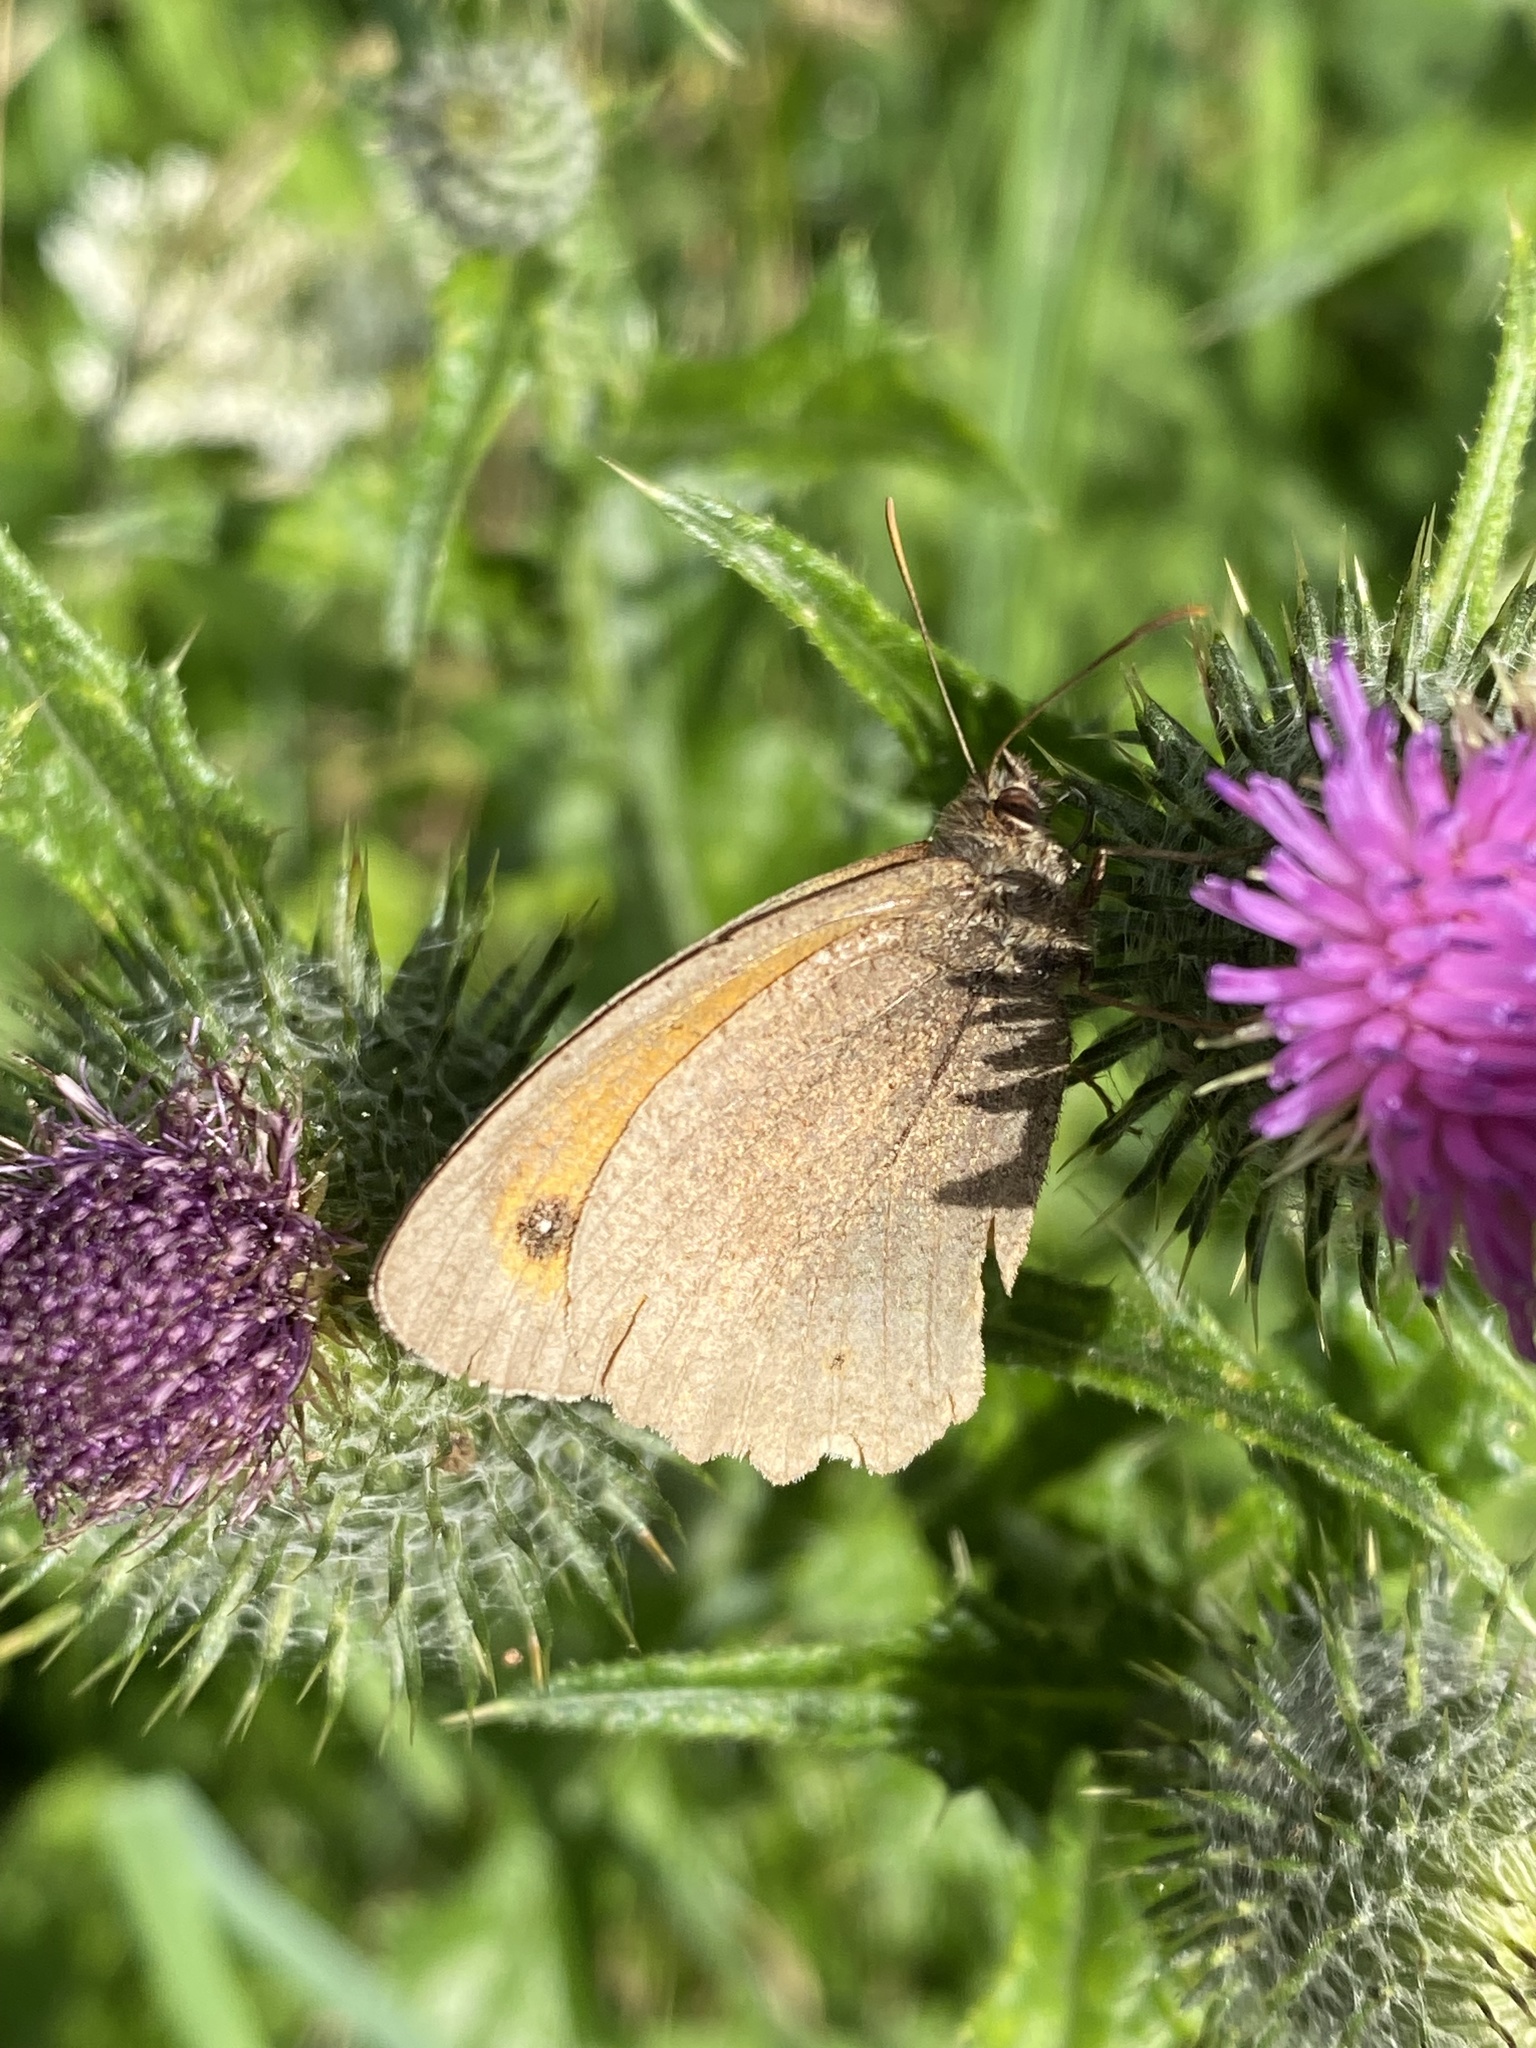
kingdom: Animalia
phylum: Arthropoda
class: Insecta
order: Lepidoptera
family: Nymphalidae
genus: Maniola
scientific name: Maniola jurtina
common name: Meadow brown
